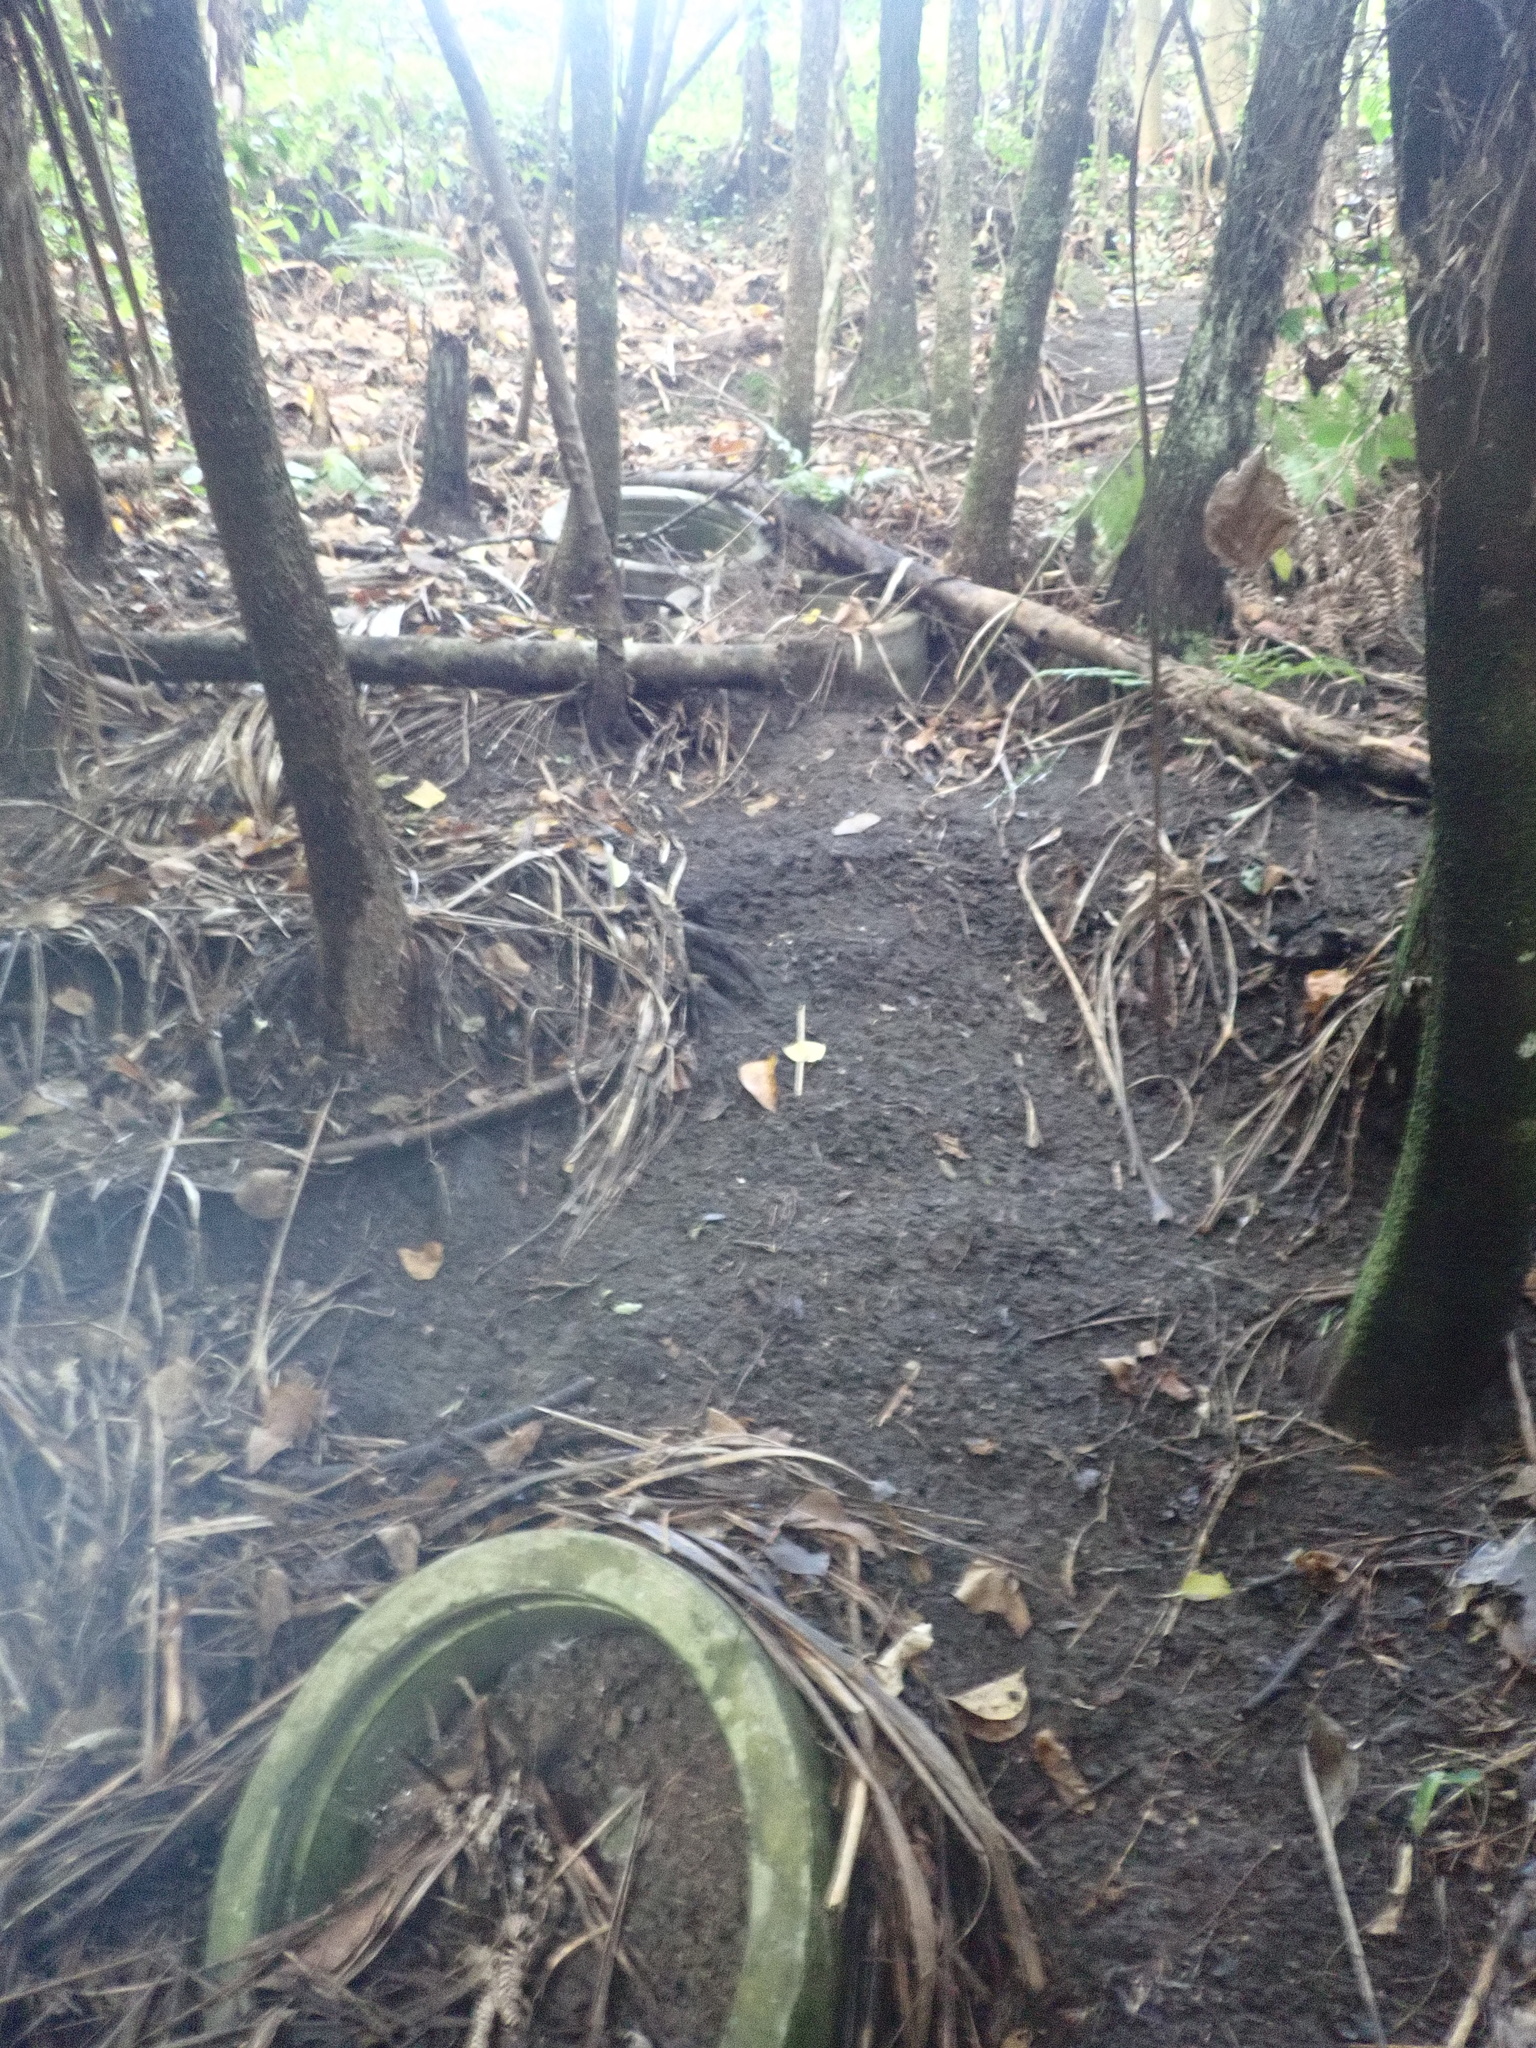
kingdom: Plantae
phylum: Tracheophyta
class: Liliopsida
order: Asparagales
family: Asparagaceae
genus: Cordyline
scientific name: Cordyline australis
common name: Cabbage-palm
